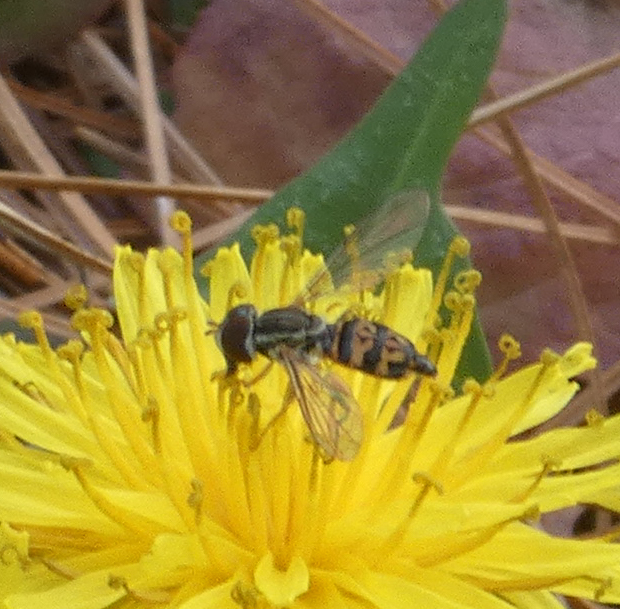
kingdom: Animalia
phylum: Arthropoda
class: Insecta
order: Diptera
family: Syrphidae
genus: Toxomerus
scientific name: Toxomerus geminatus
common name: Eastern calligrapher
